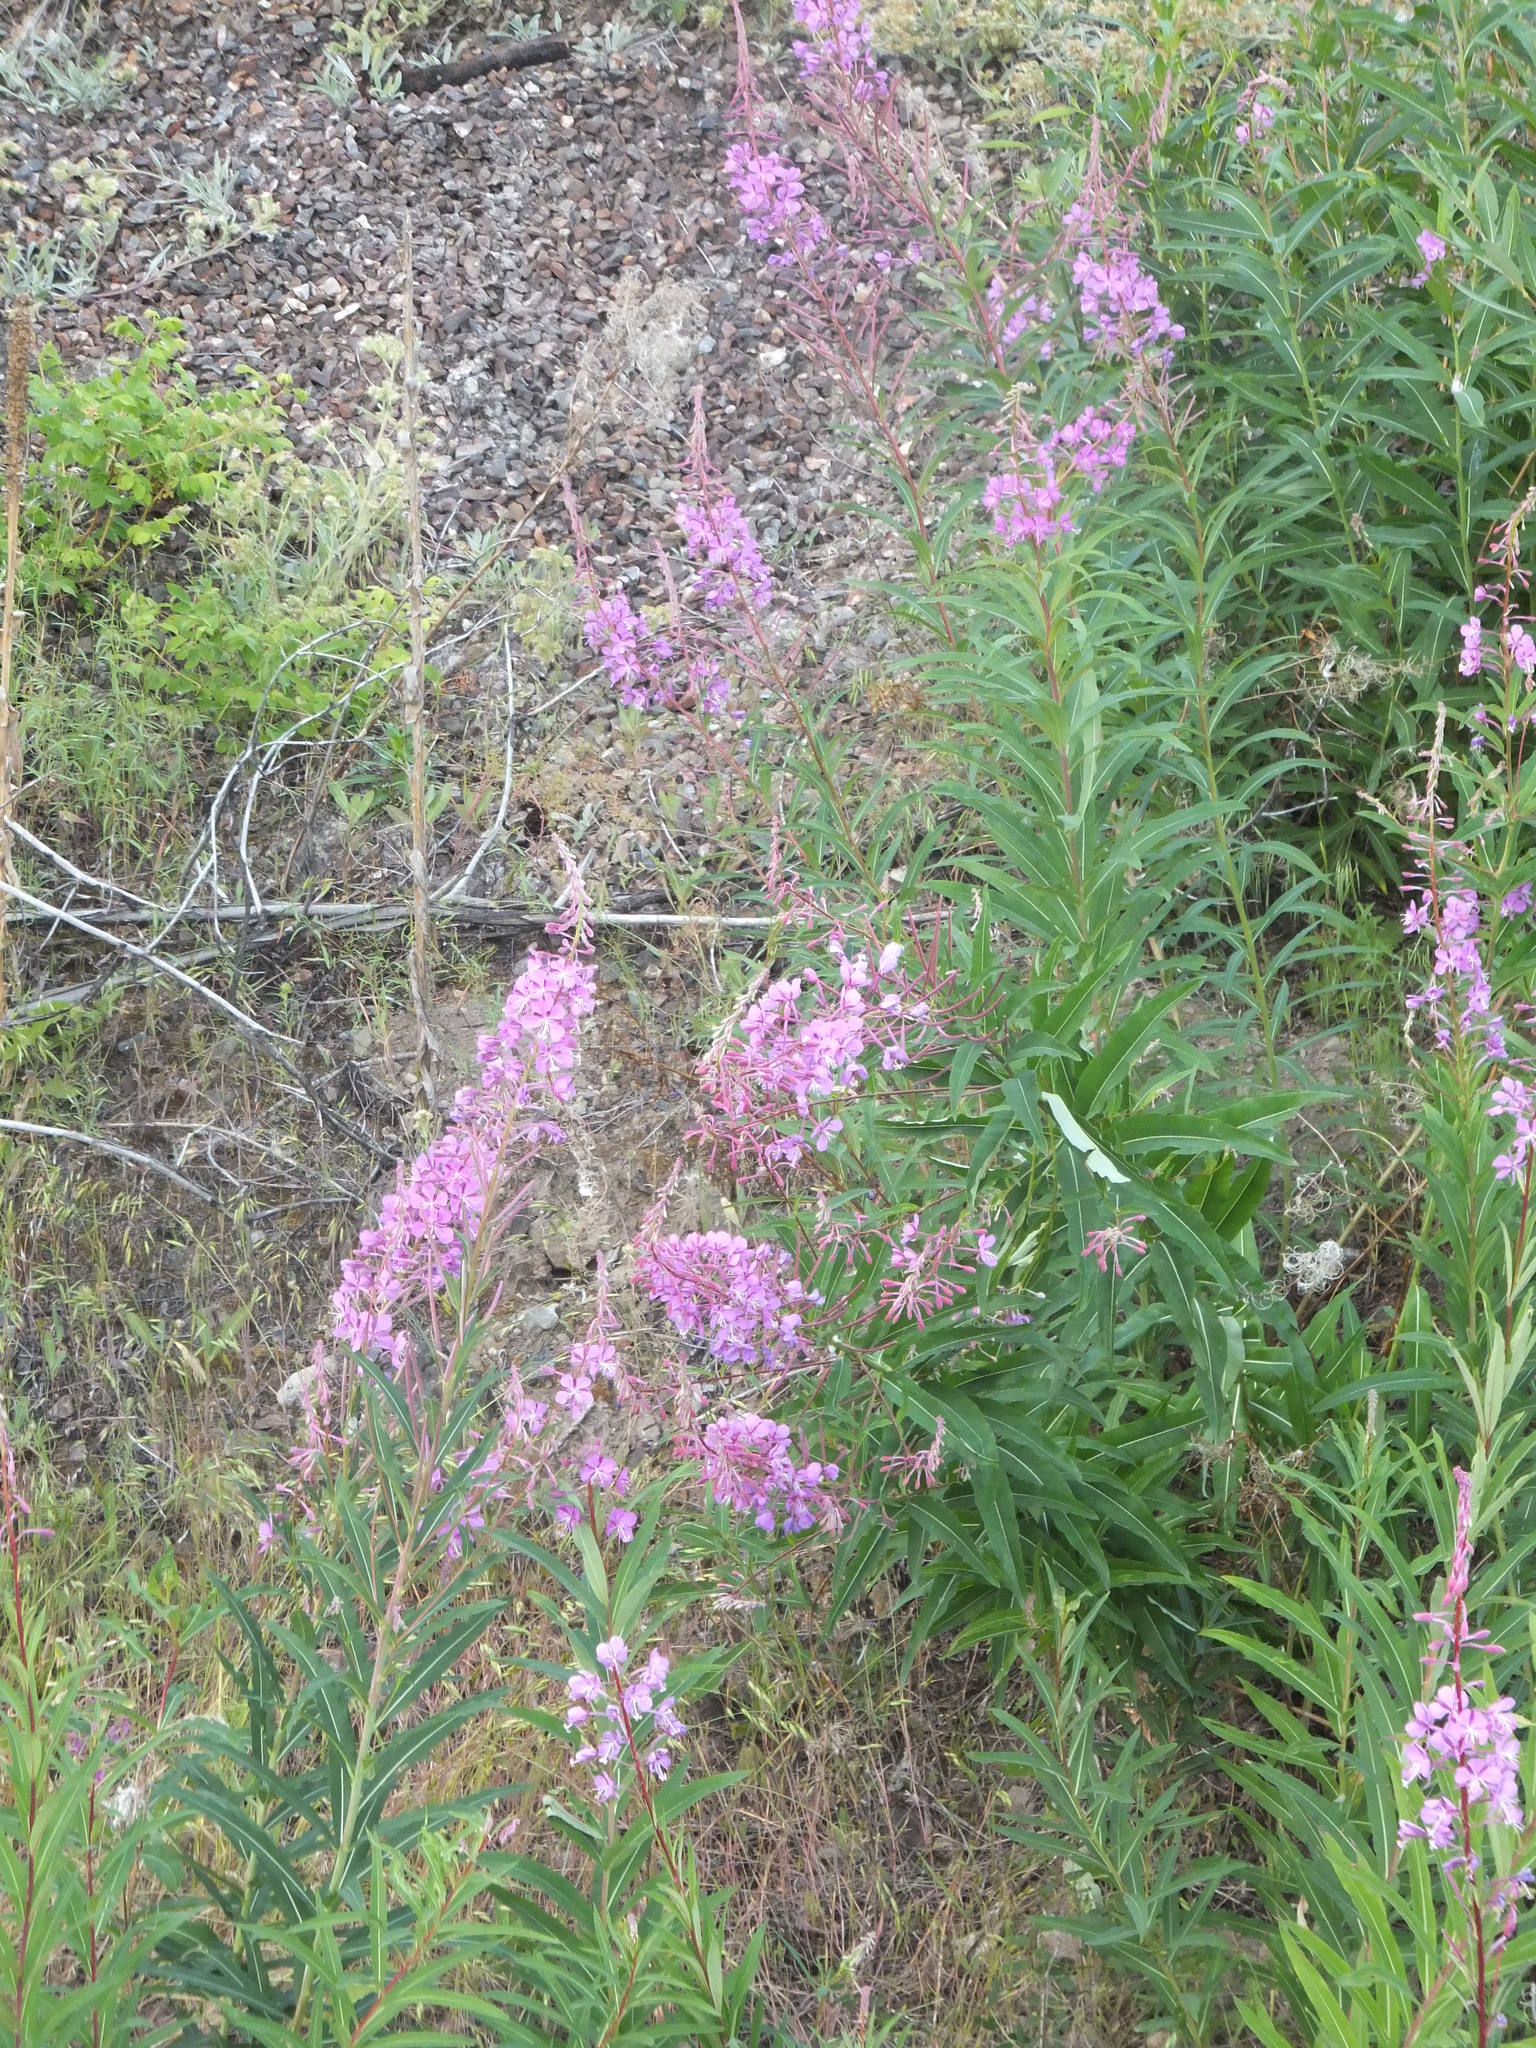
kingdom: Plantae
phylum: Tracheophyta
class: Magnoliopsida
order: Myrtales
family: Onagraceae
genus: Chamaenerion
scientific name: Chamaenerion angustifolium
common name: Fireweed
